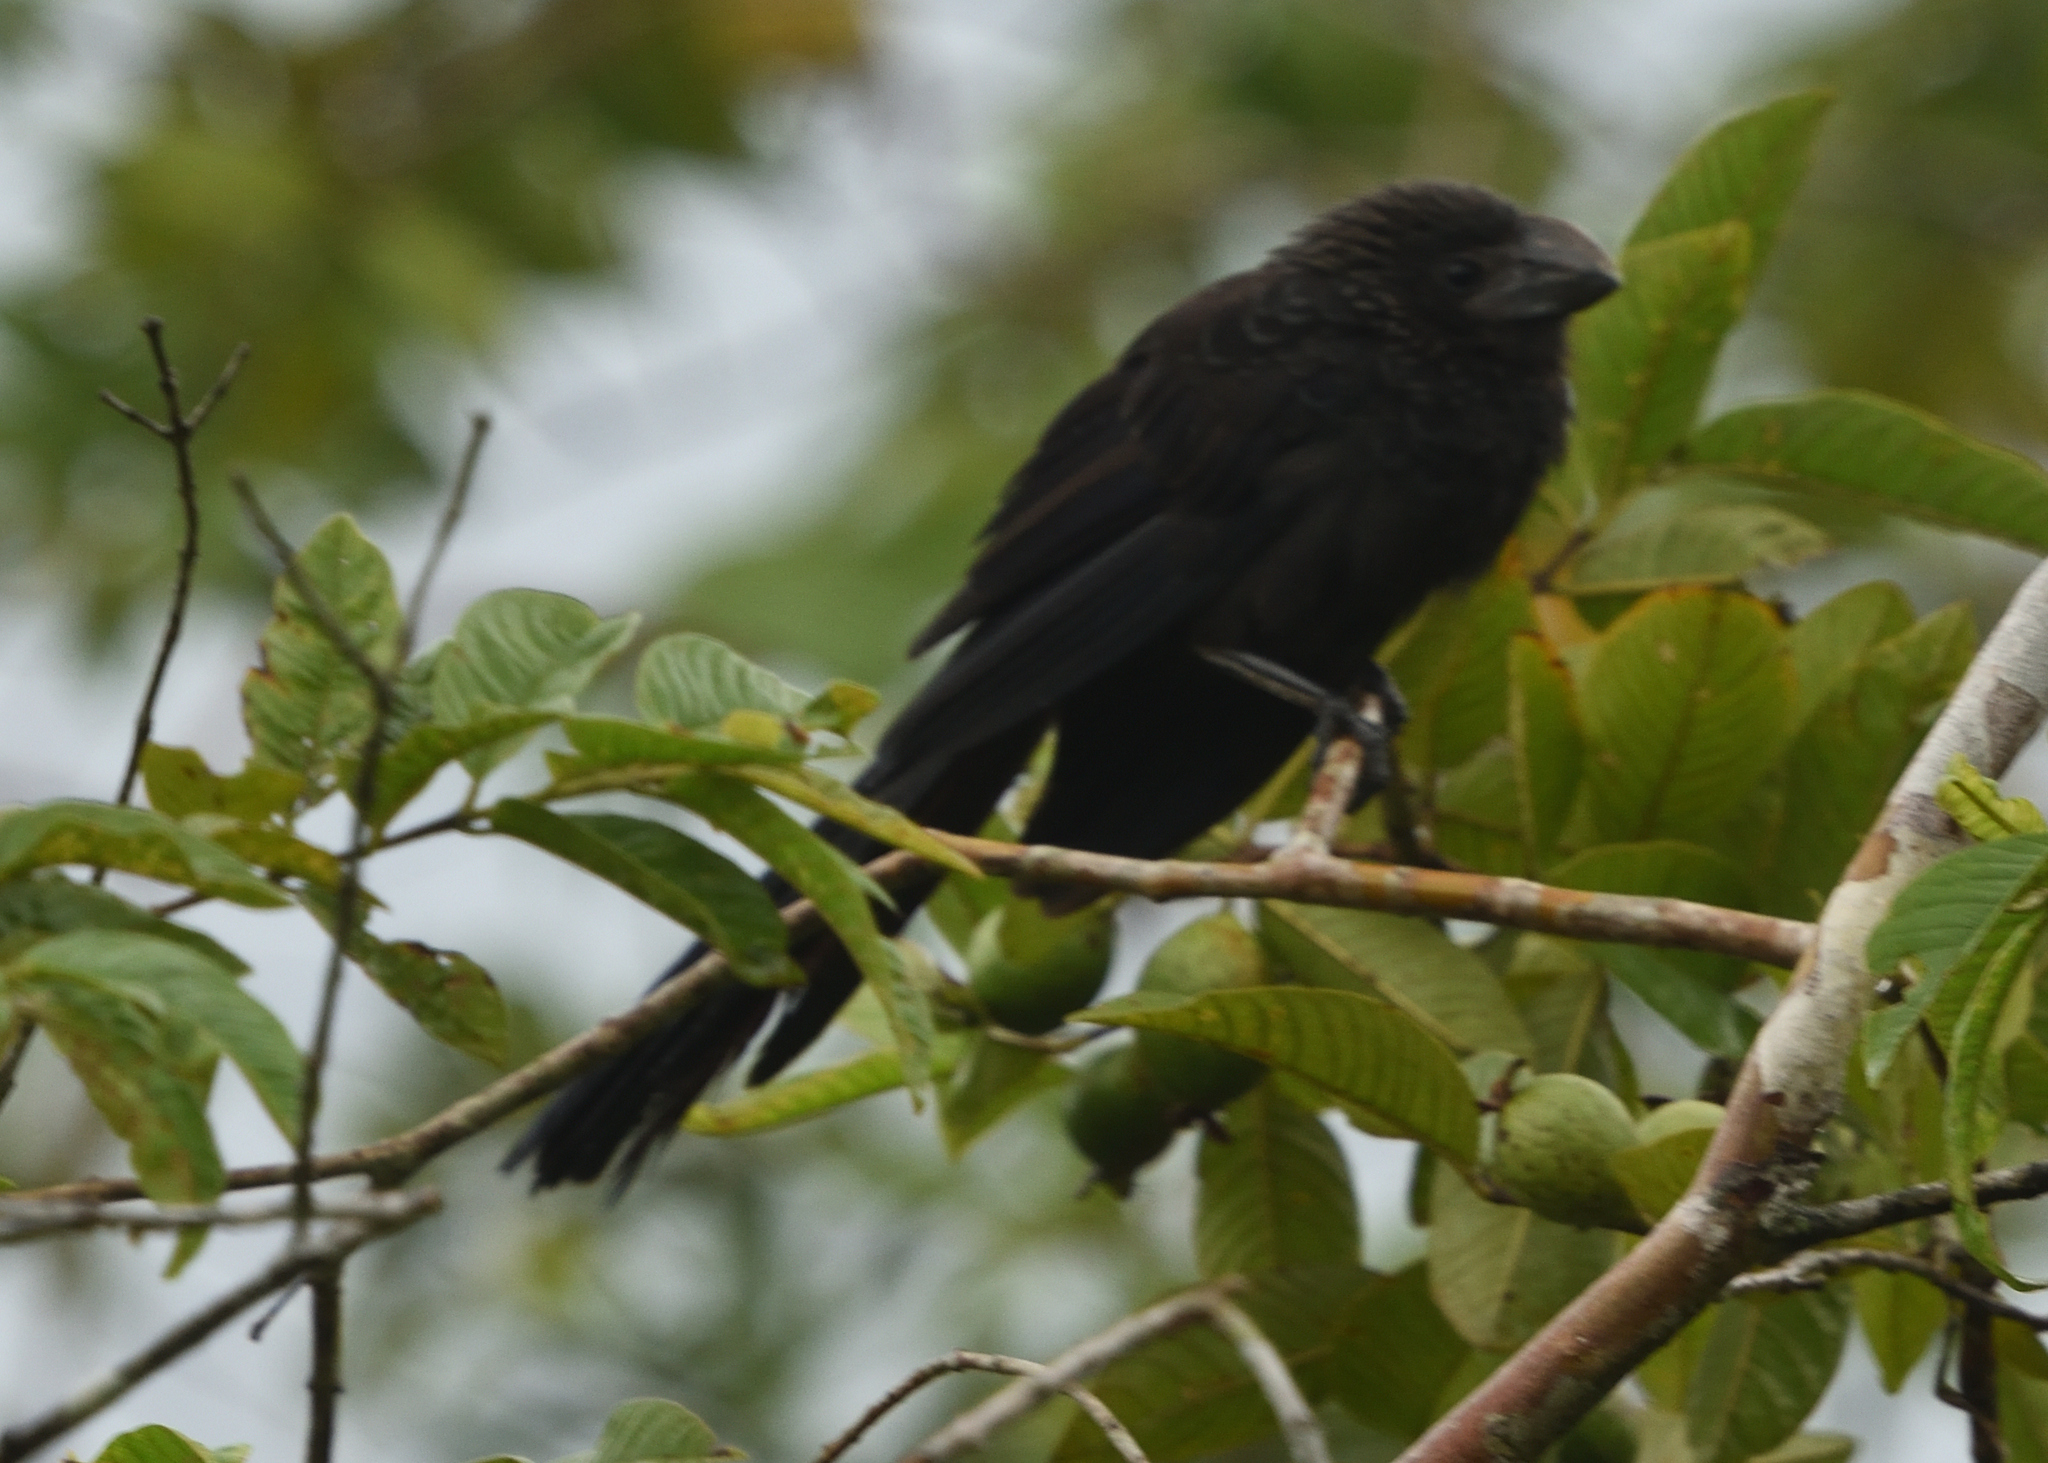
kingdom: Animalia
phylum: Chordata
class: Aves
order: Cuculiformes
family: Cuculidae
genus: Crotophaga
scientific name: Crotophaga ani
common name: Smooth-billed ani
